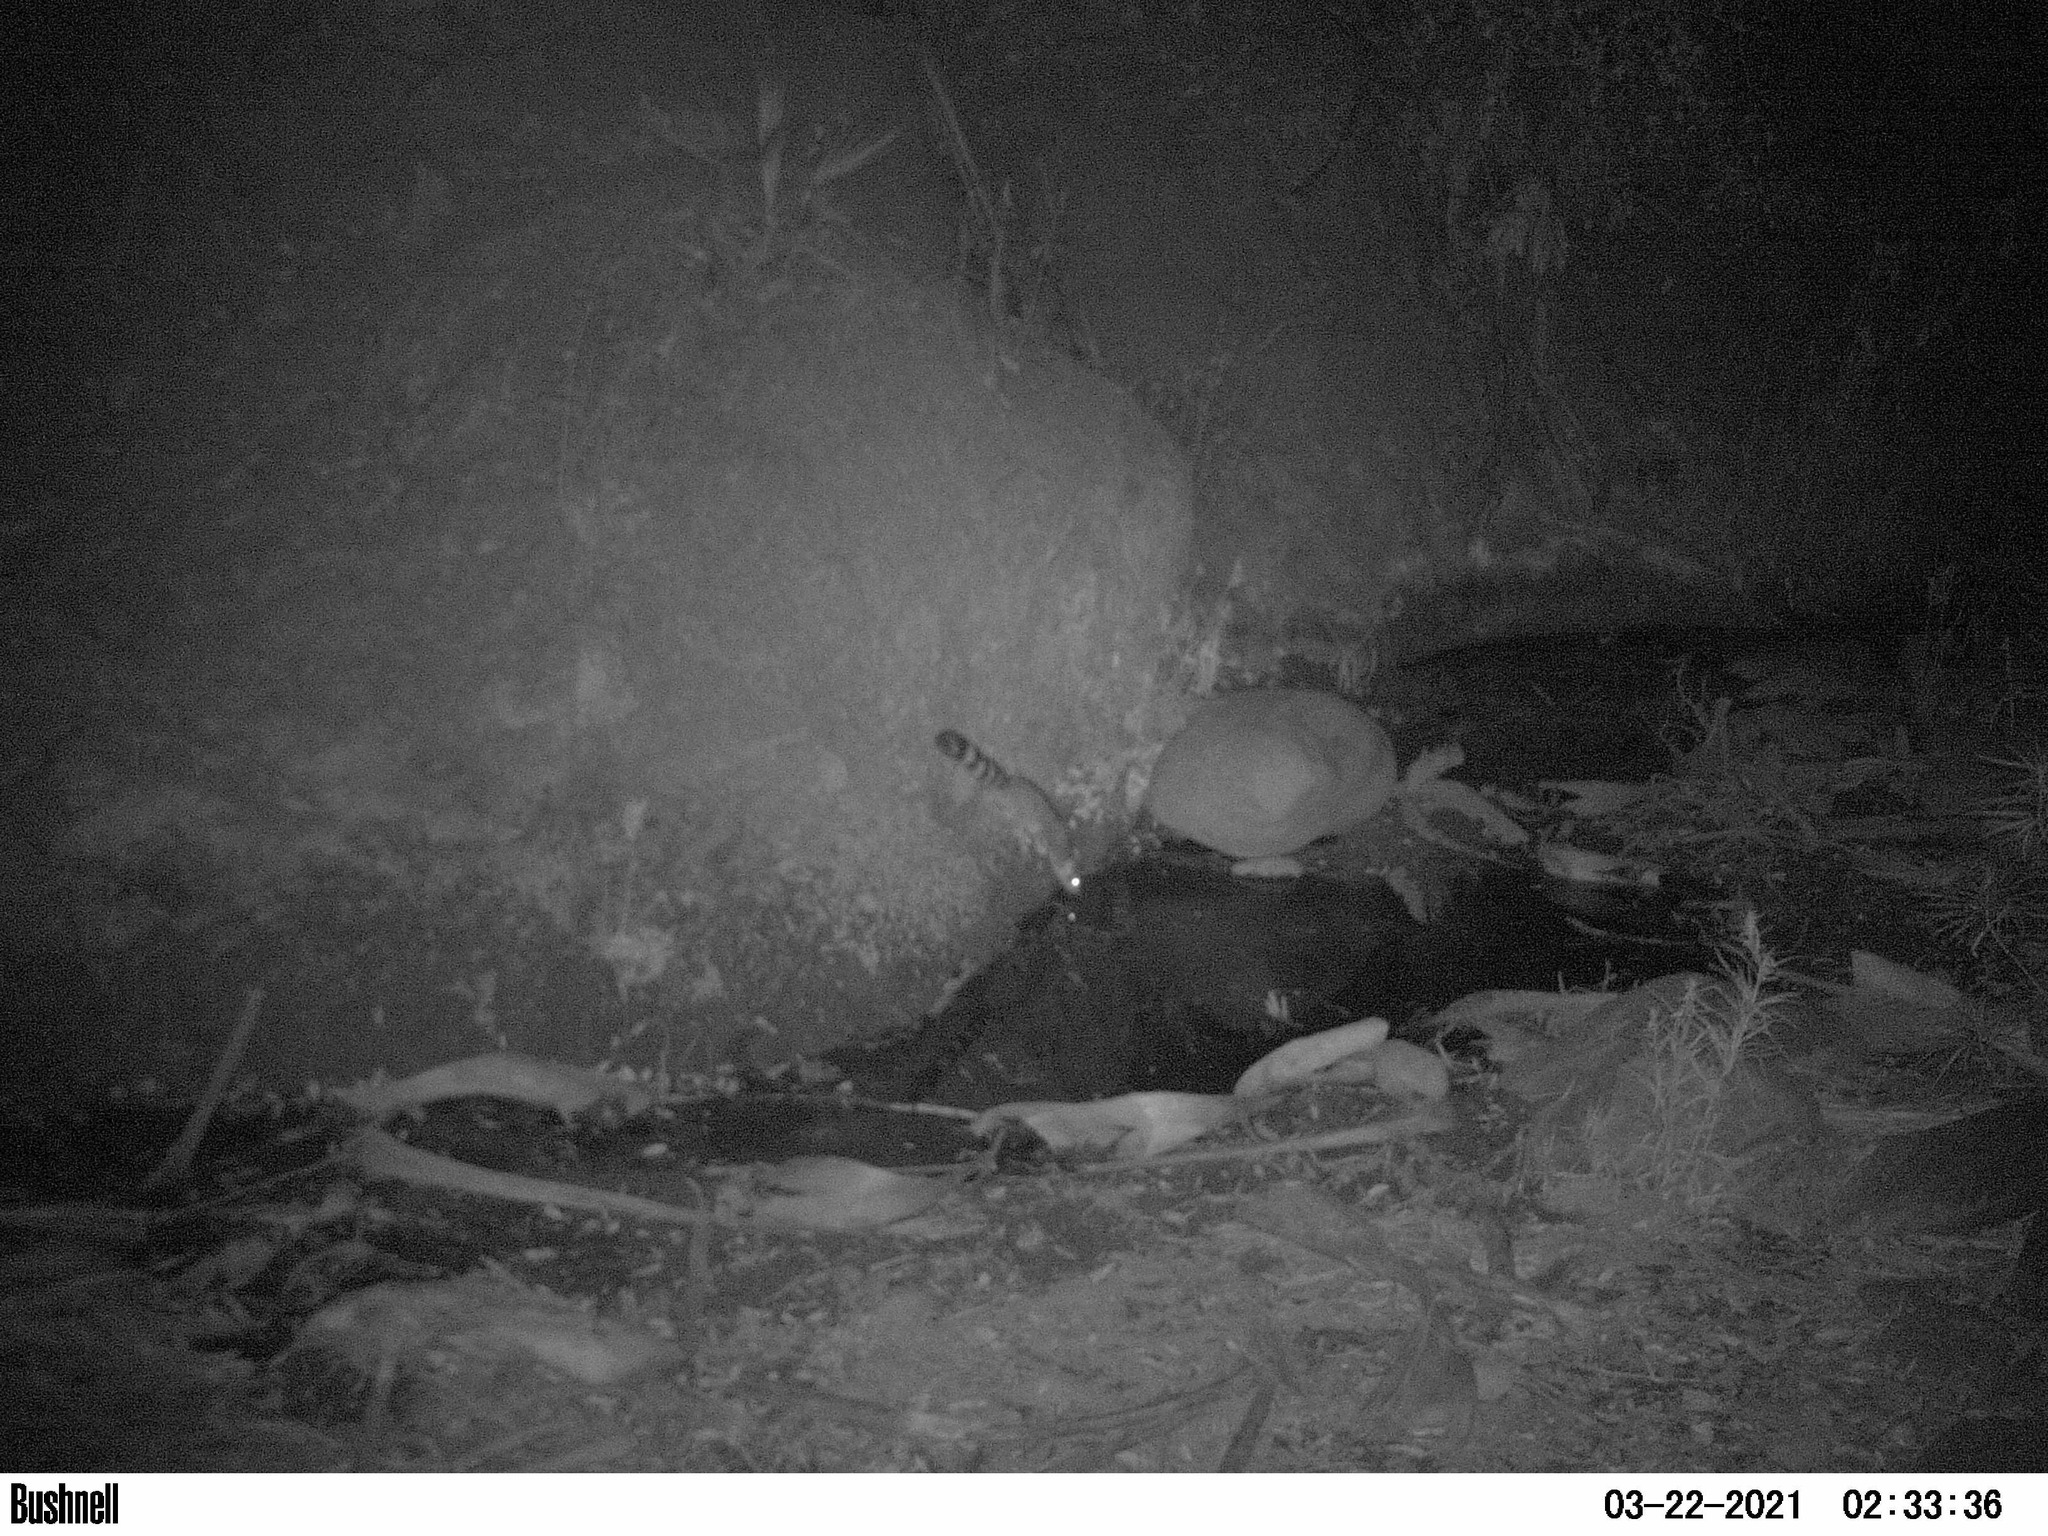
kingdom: Animalia
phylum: Chordata
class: Mammalia
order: Carnivora
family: Procyonidae
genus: Bassariscus
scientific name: Bassariscus astutus
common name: Ringtail
